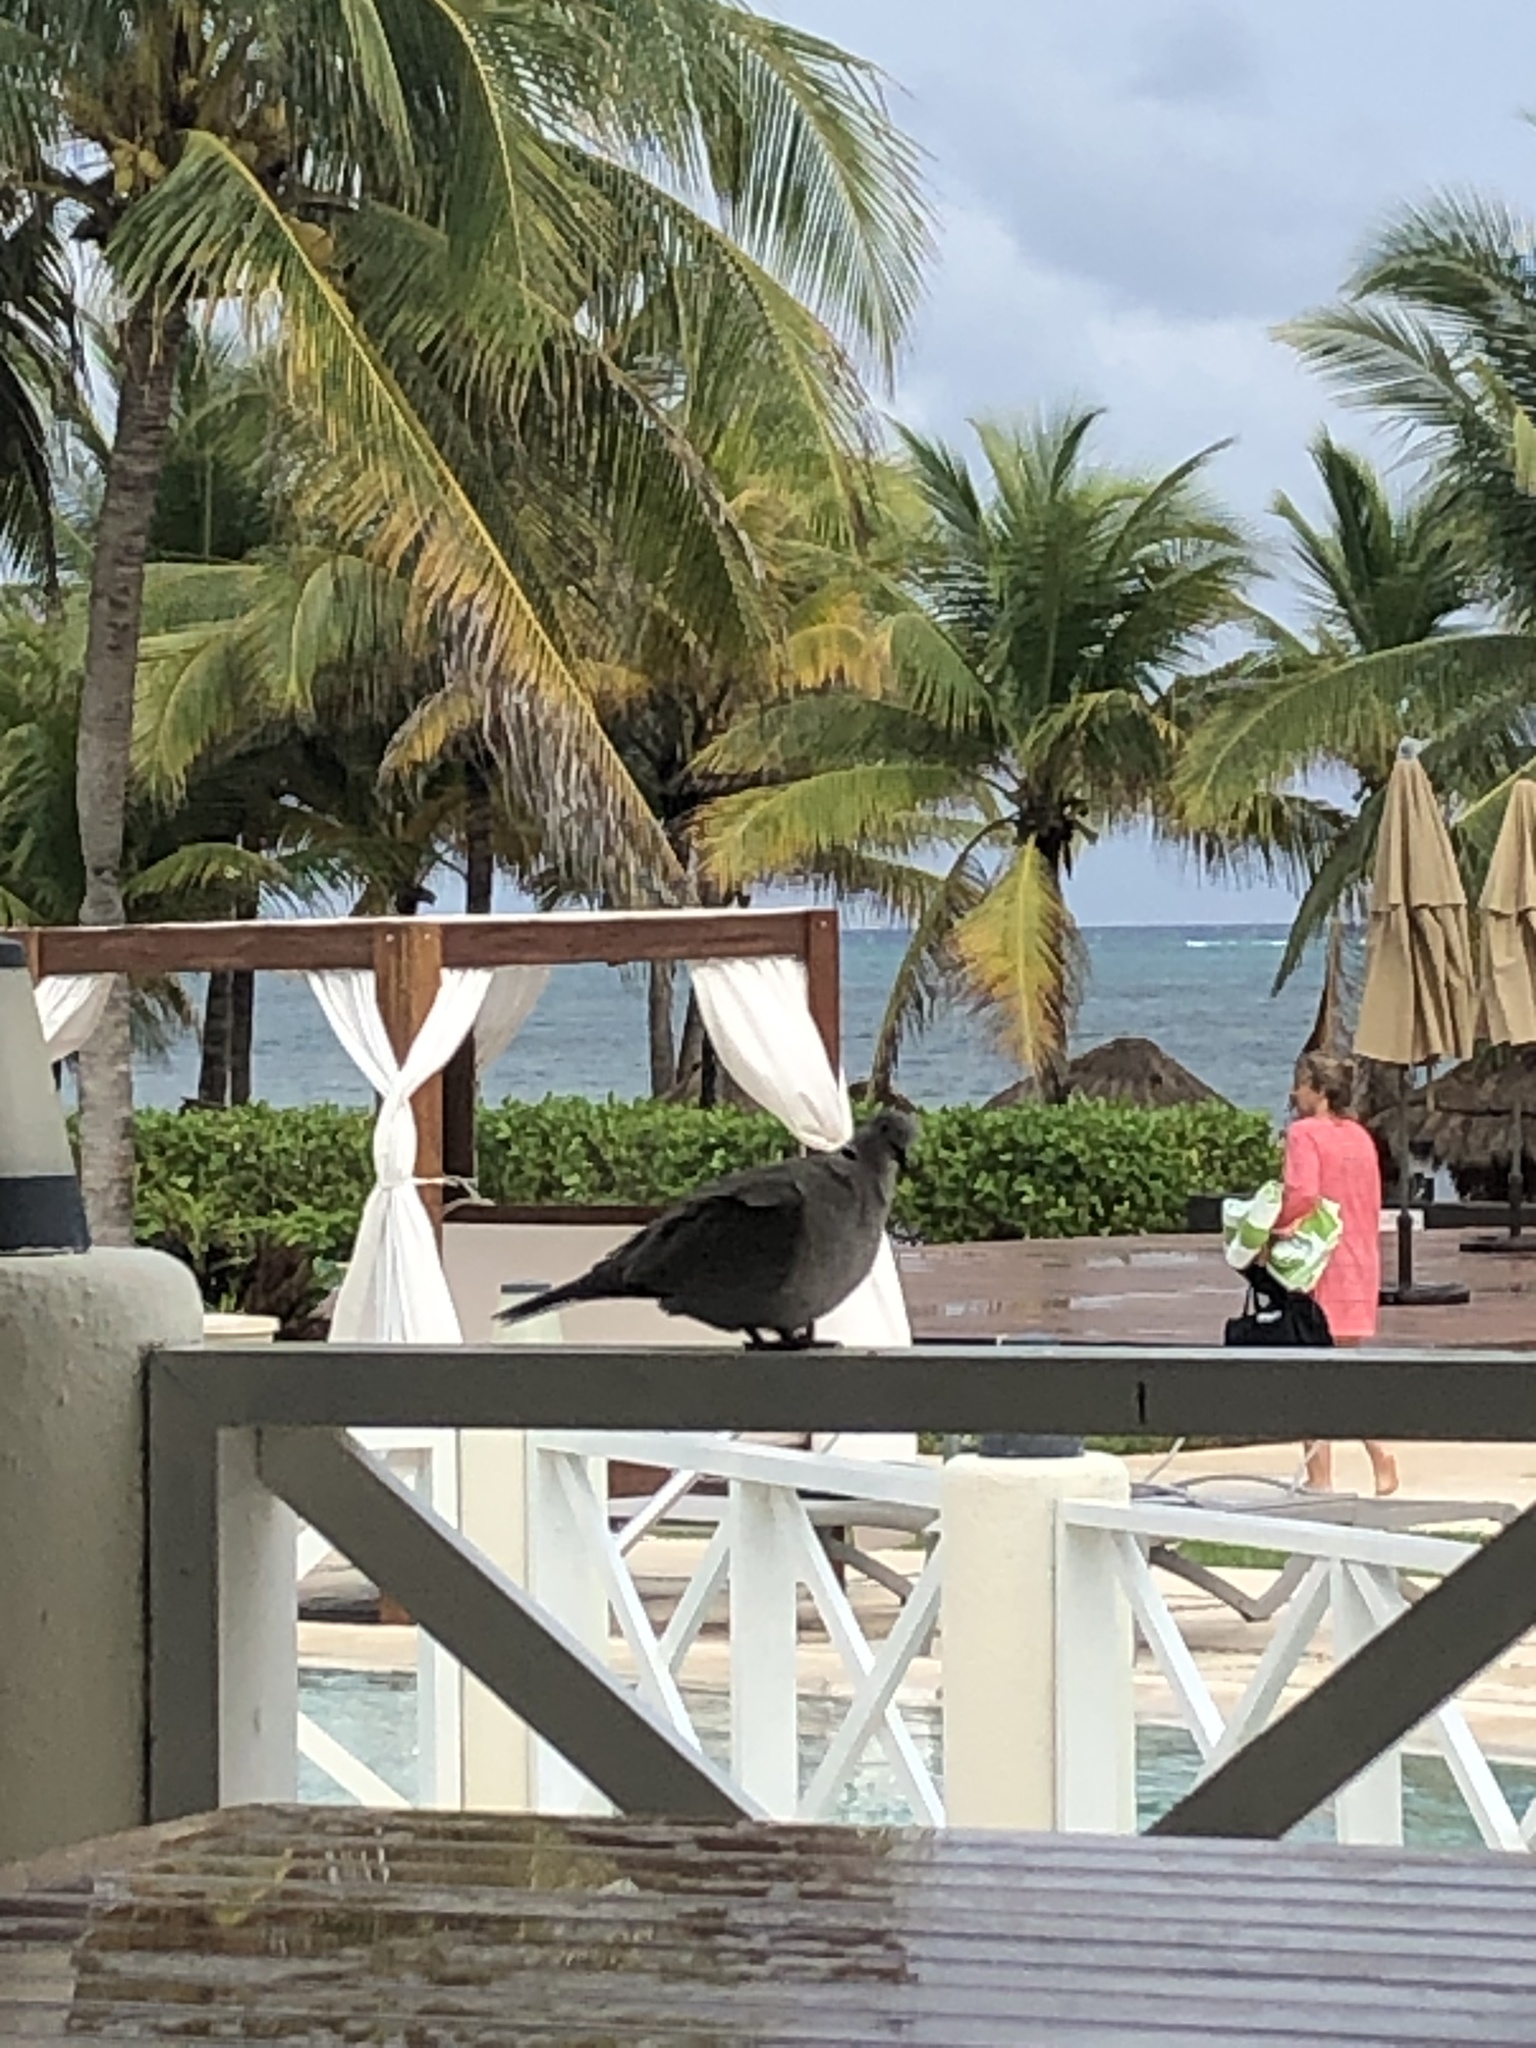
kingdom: Animalia
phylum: Chordata
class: Aves
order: Columbiformes
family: Columbidae
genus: Streptopelia
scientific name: Streptopelia decaocto
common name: Eurasian collared dove
